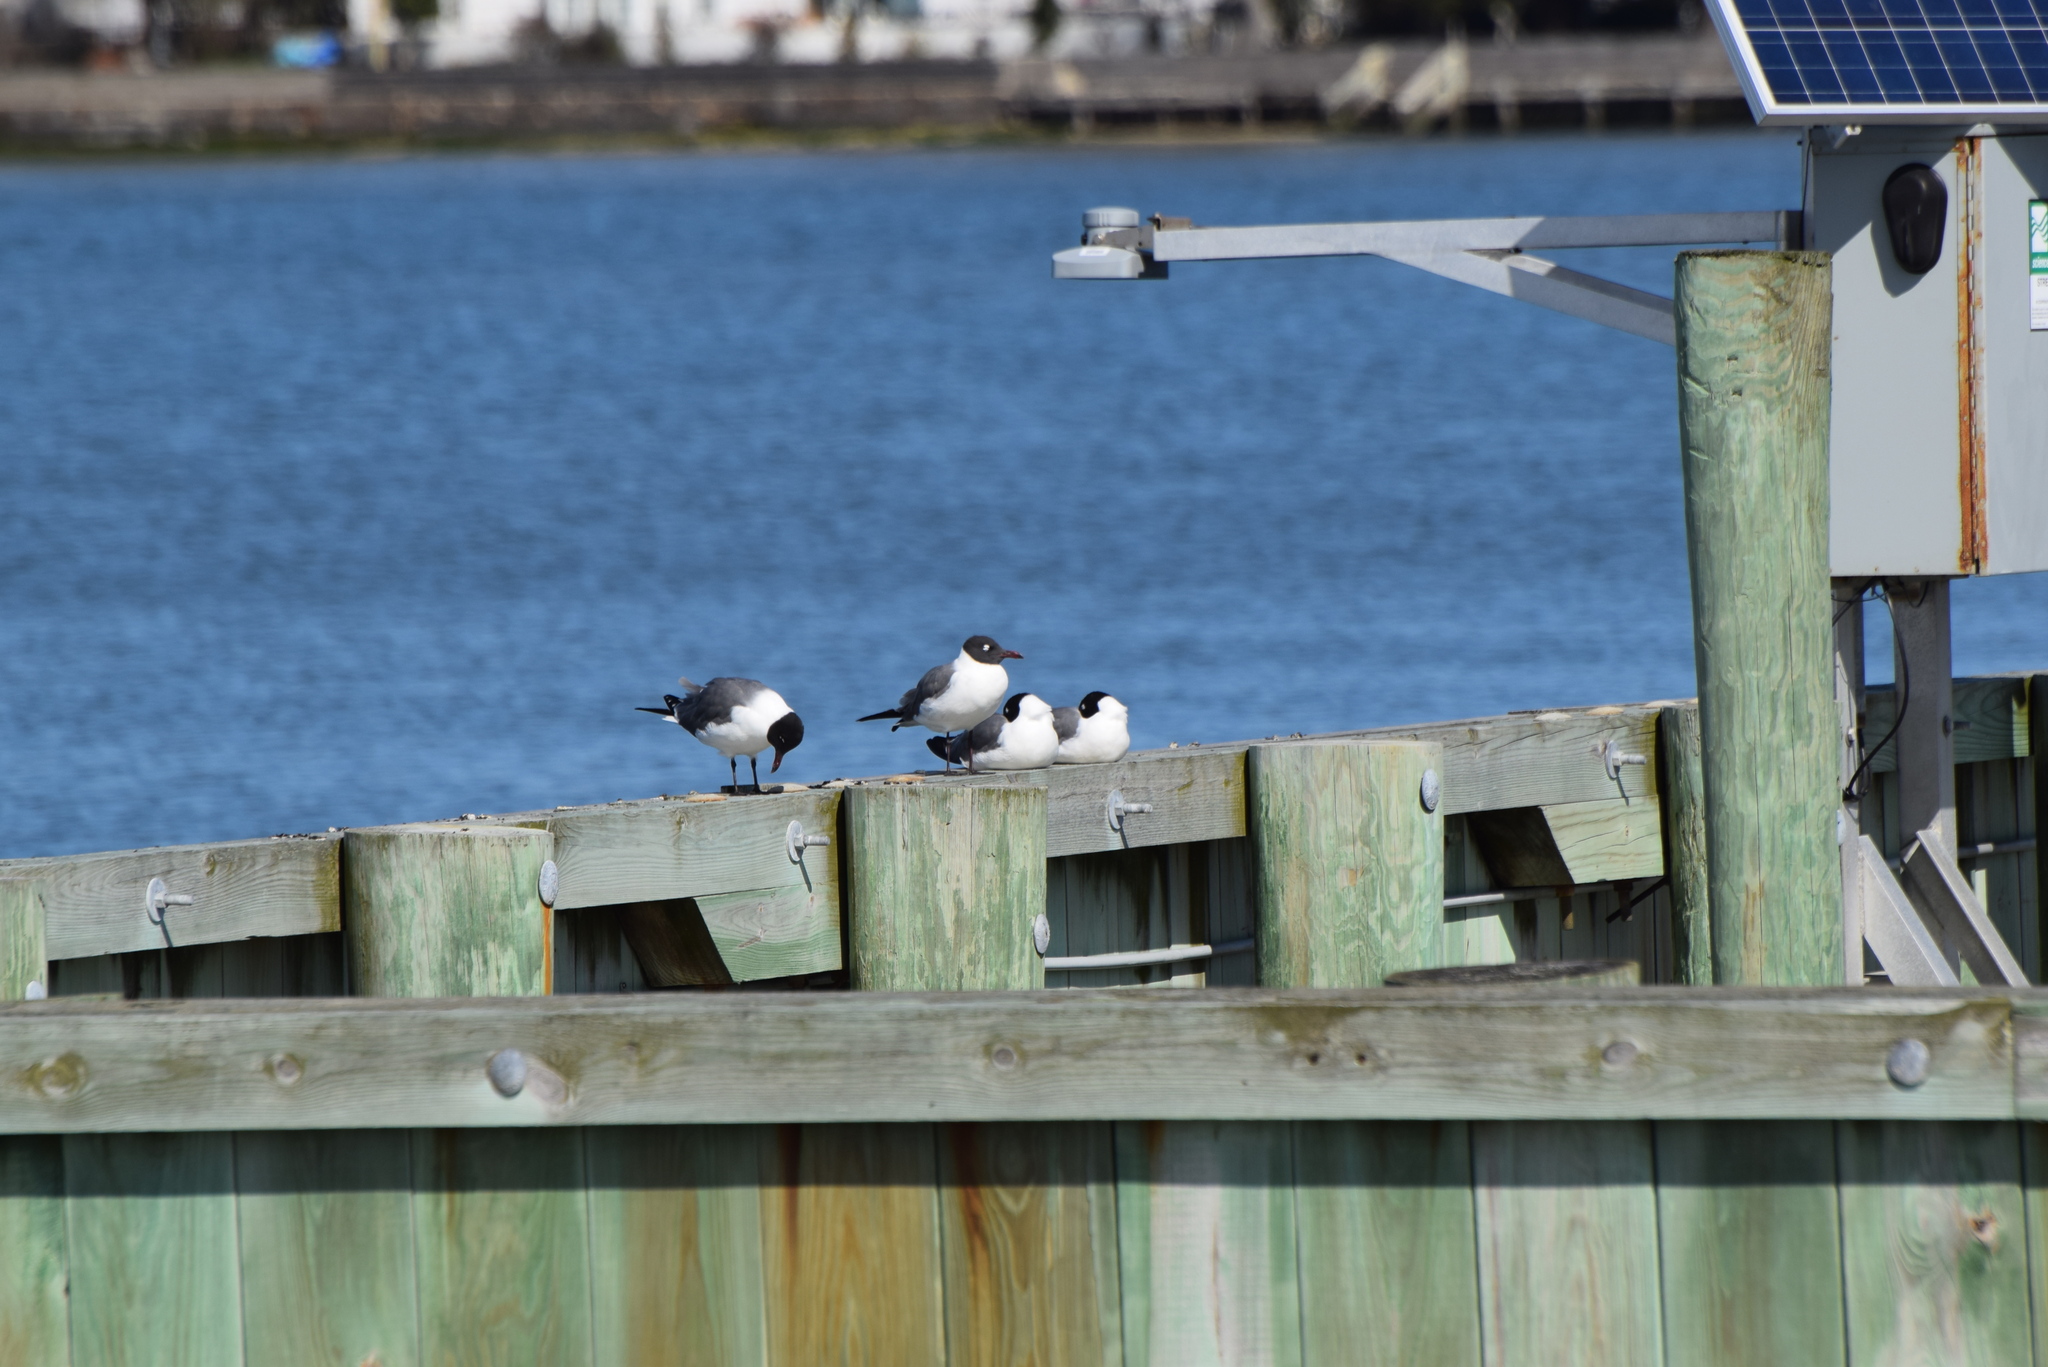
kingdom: Animalia
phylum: Chordata
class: Aves
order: Charadriiformes
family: Laridae
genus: Leucophaeus
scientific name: Leucophaeus atricilla
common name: Laughing gull
